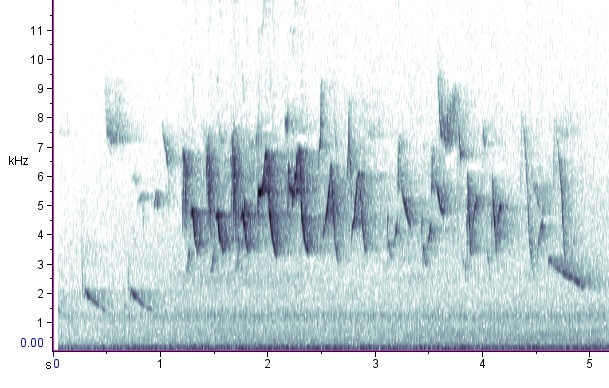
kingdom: Animalia
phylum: Chordata
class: Aves
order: Passeriformes
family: Cardinalidae
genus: Passerina
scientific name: Passerina cyanea
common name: Indigo bunting
